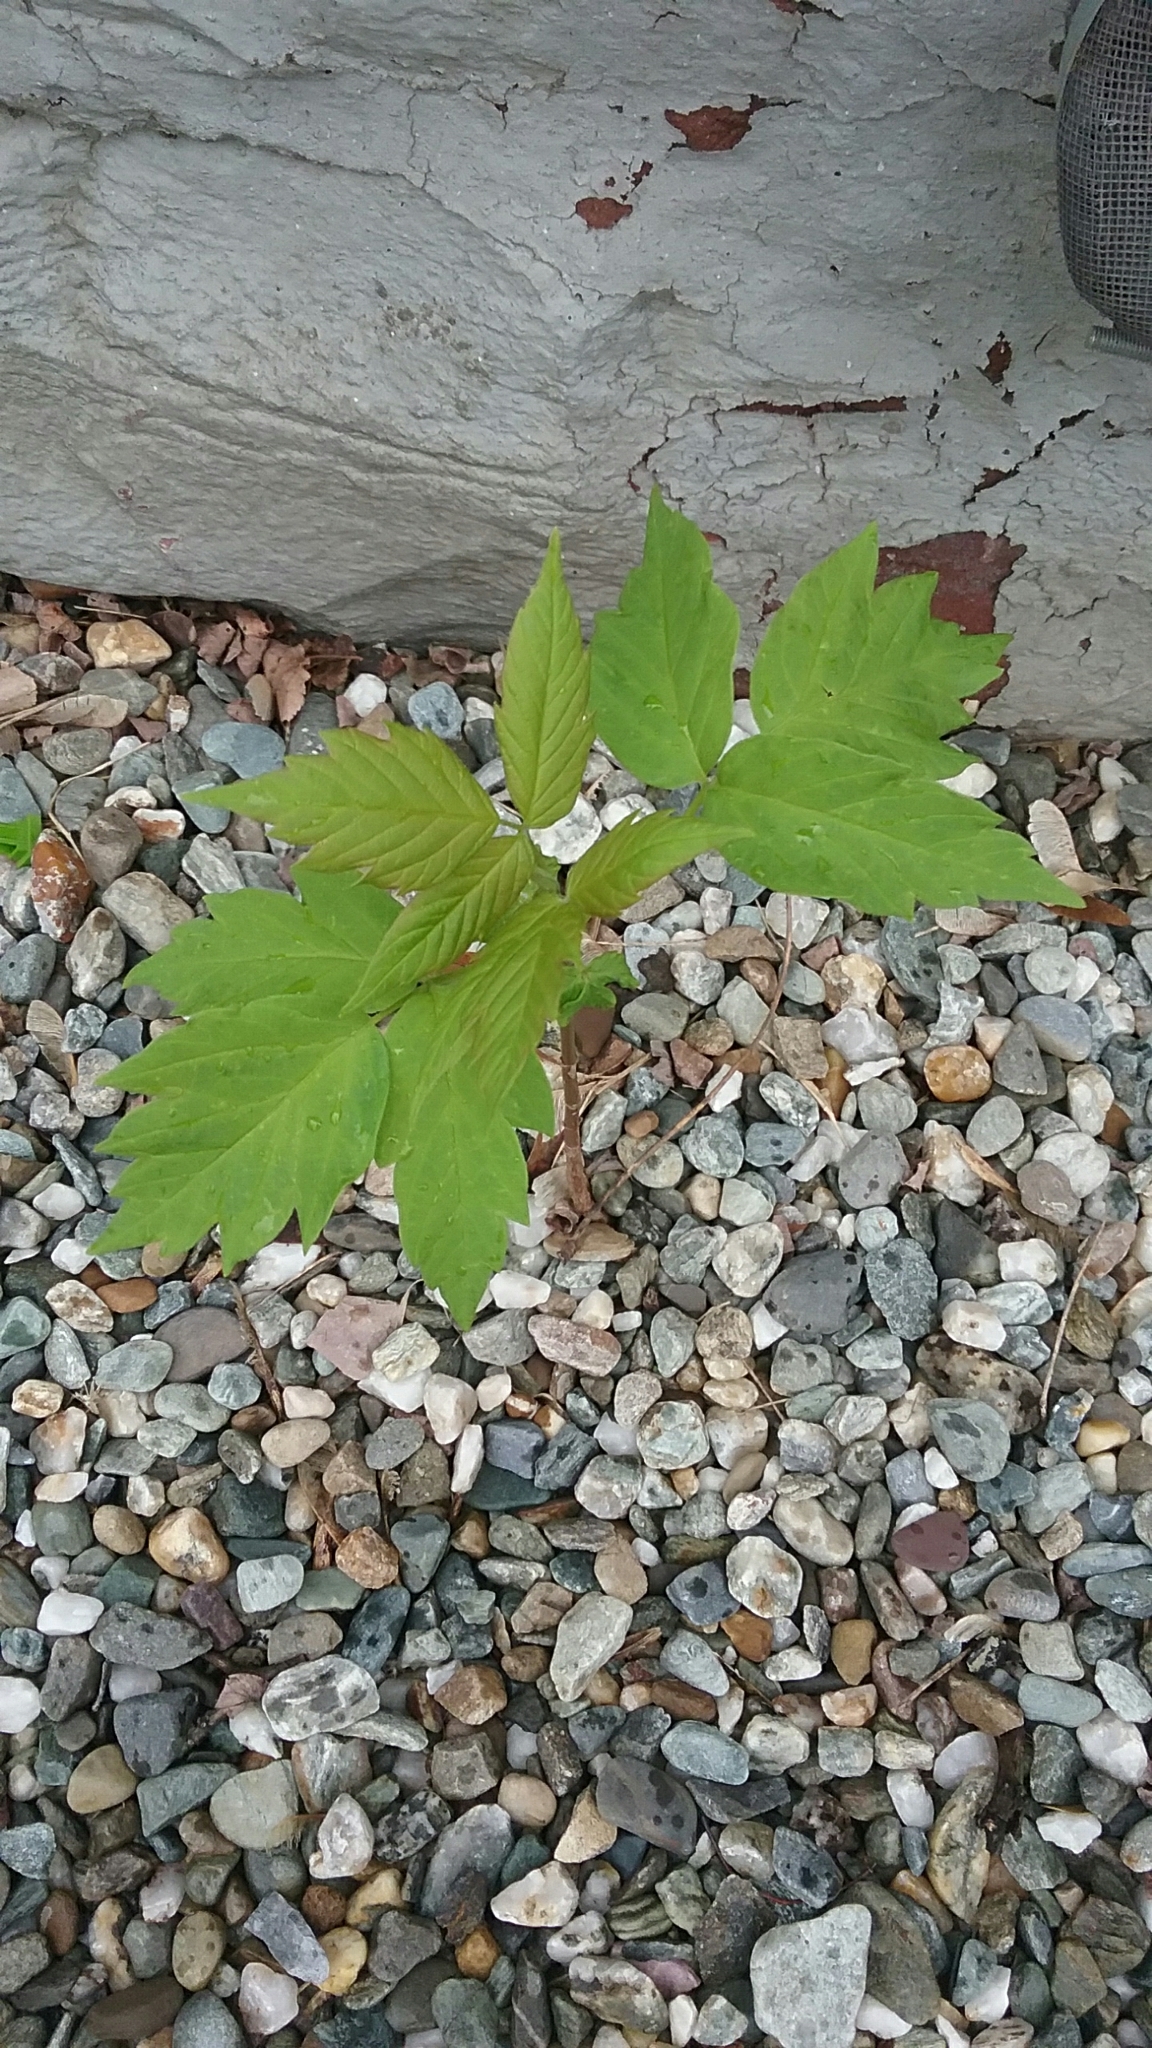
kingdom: Plantae
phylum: Tracheophyta
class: Magnoliopsida
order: Sapindales
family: Sapindaceae
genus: Acer
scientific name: Acer negundo
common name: Ashleaf maple
